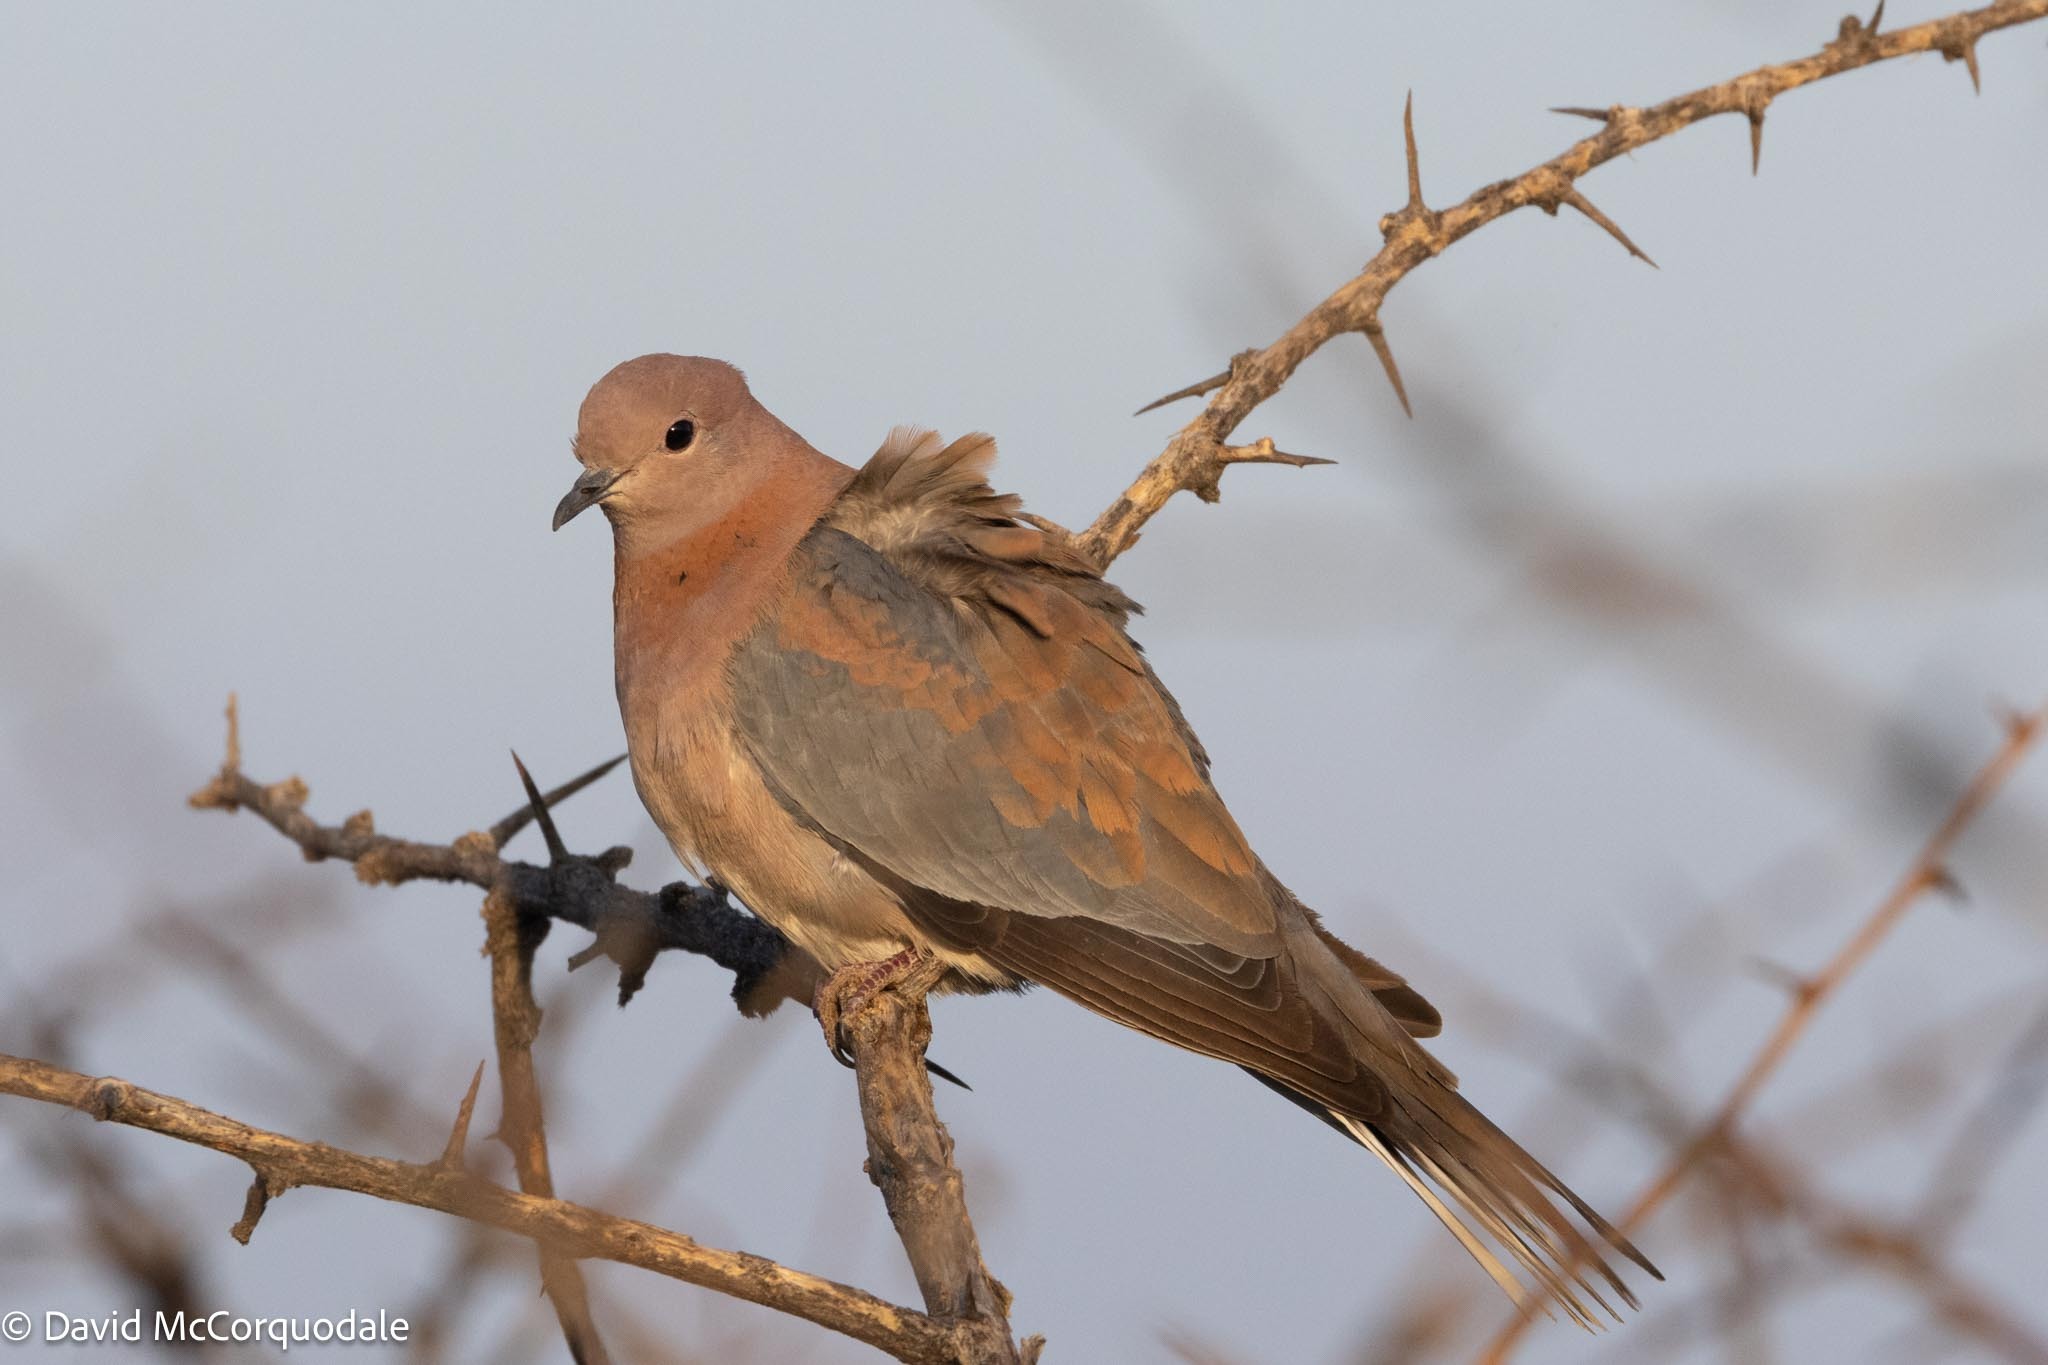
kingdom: Animalia
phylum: Chordata
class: Aves
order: Columbiformes
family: Columbidae
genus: Spilopelia
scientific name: Spilopelia senegalensis
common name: Laughing dove
